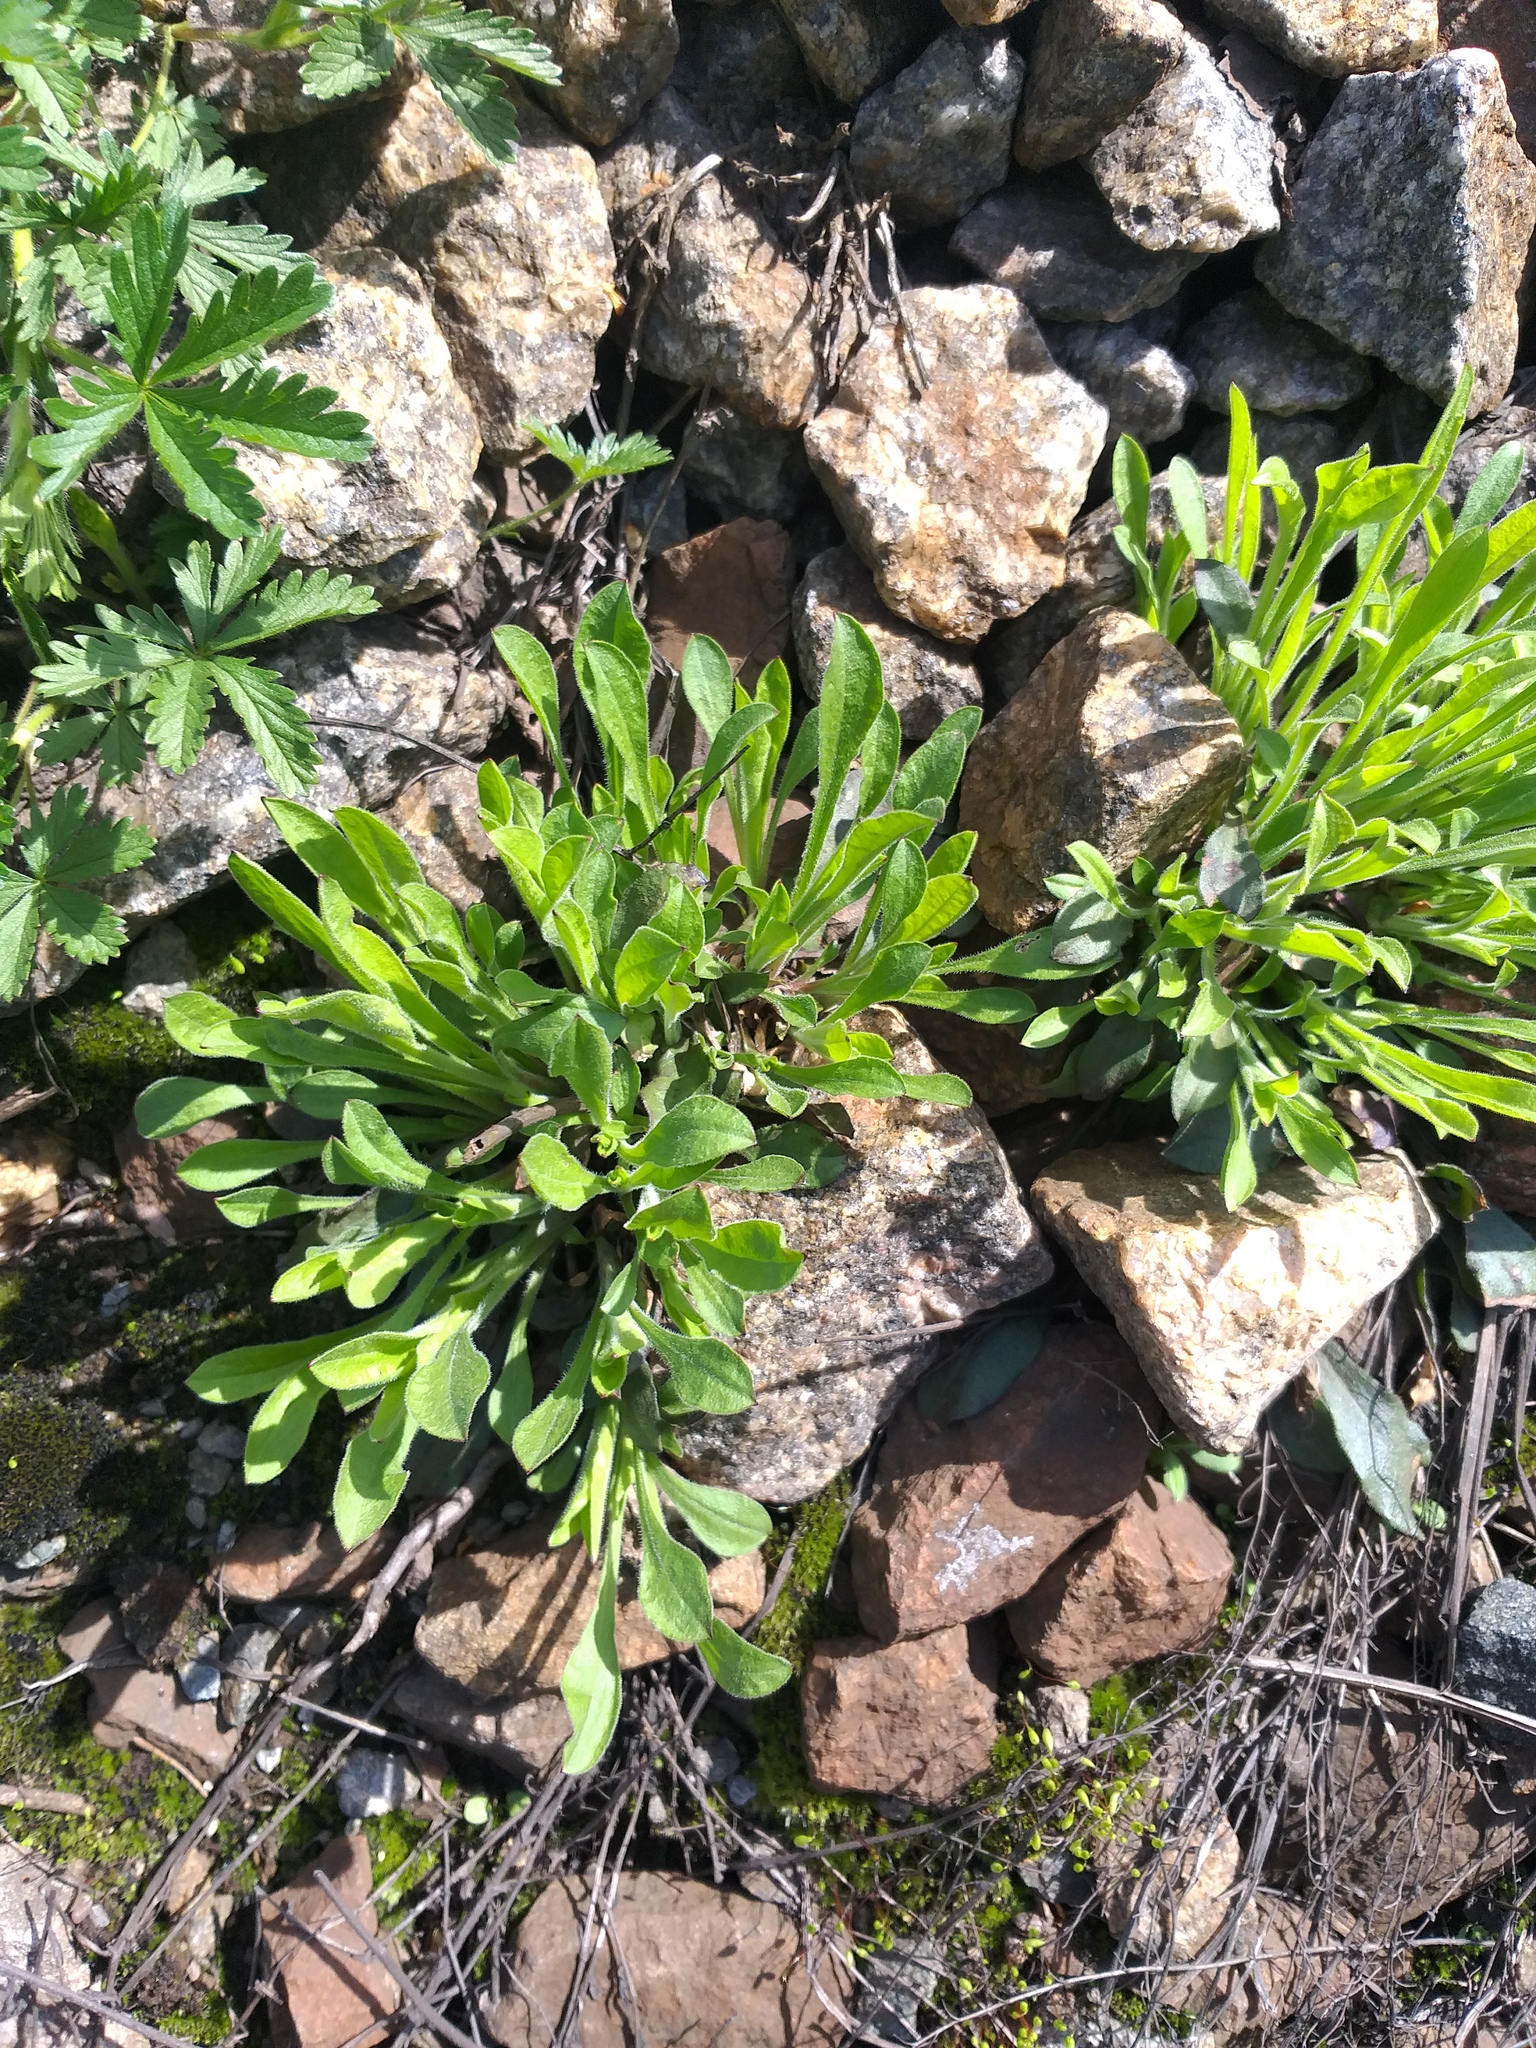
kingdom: Plantae
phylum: Tracheophyta
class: Magnoliopsida
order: Caryophyllales
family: Caryophyllaceae
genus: Silene
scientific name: Silene nutans
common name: Nottingham catchfly
